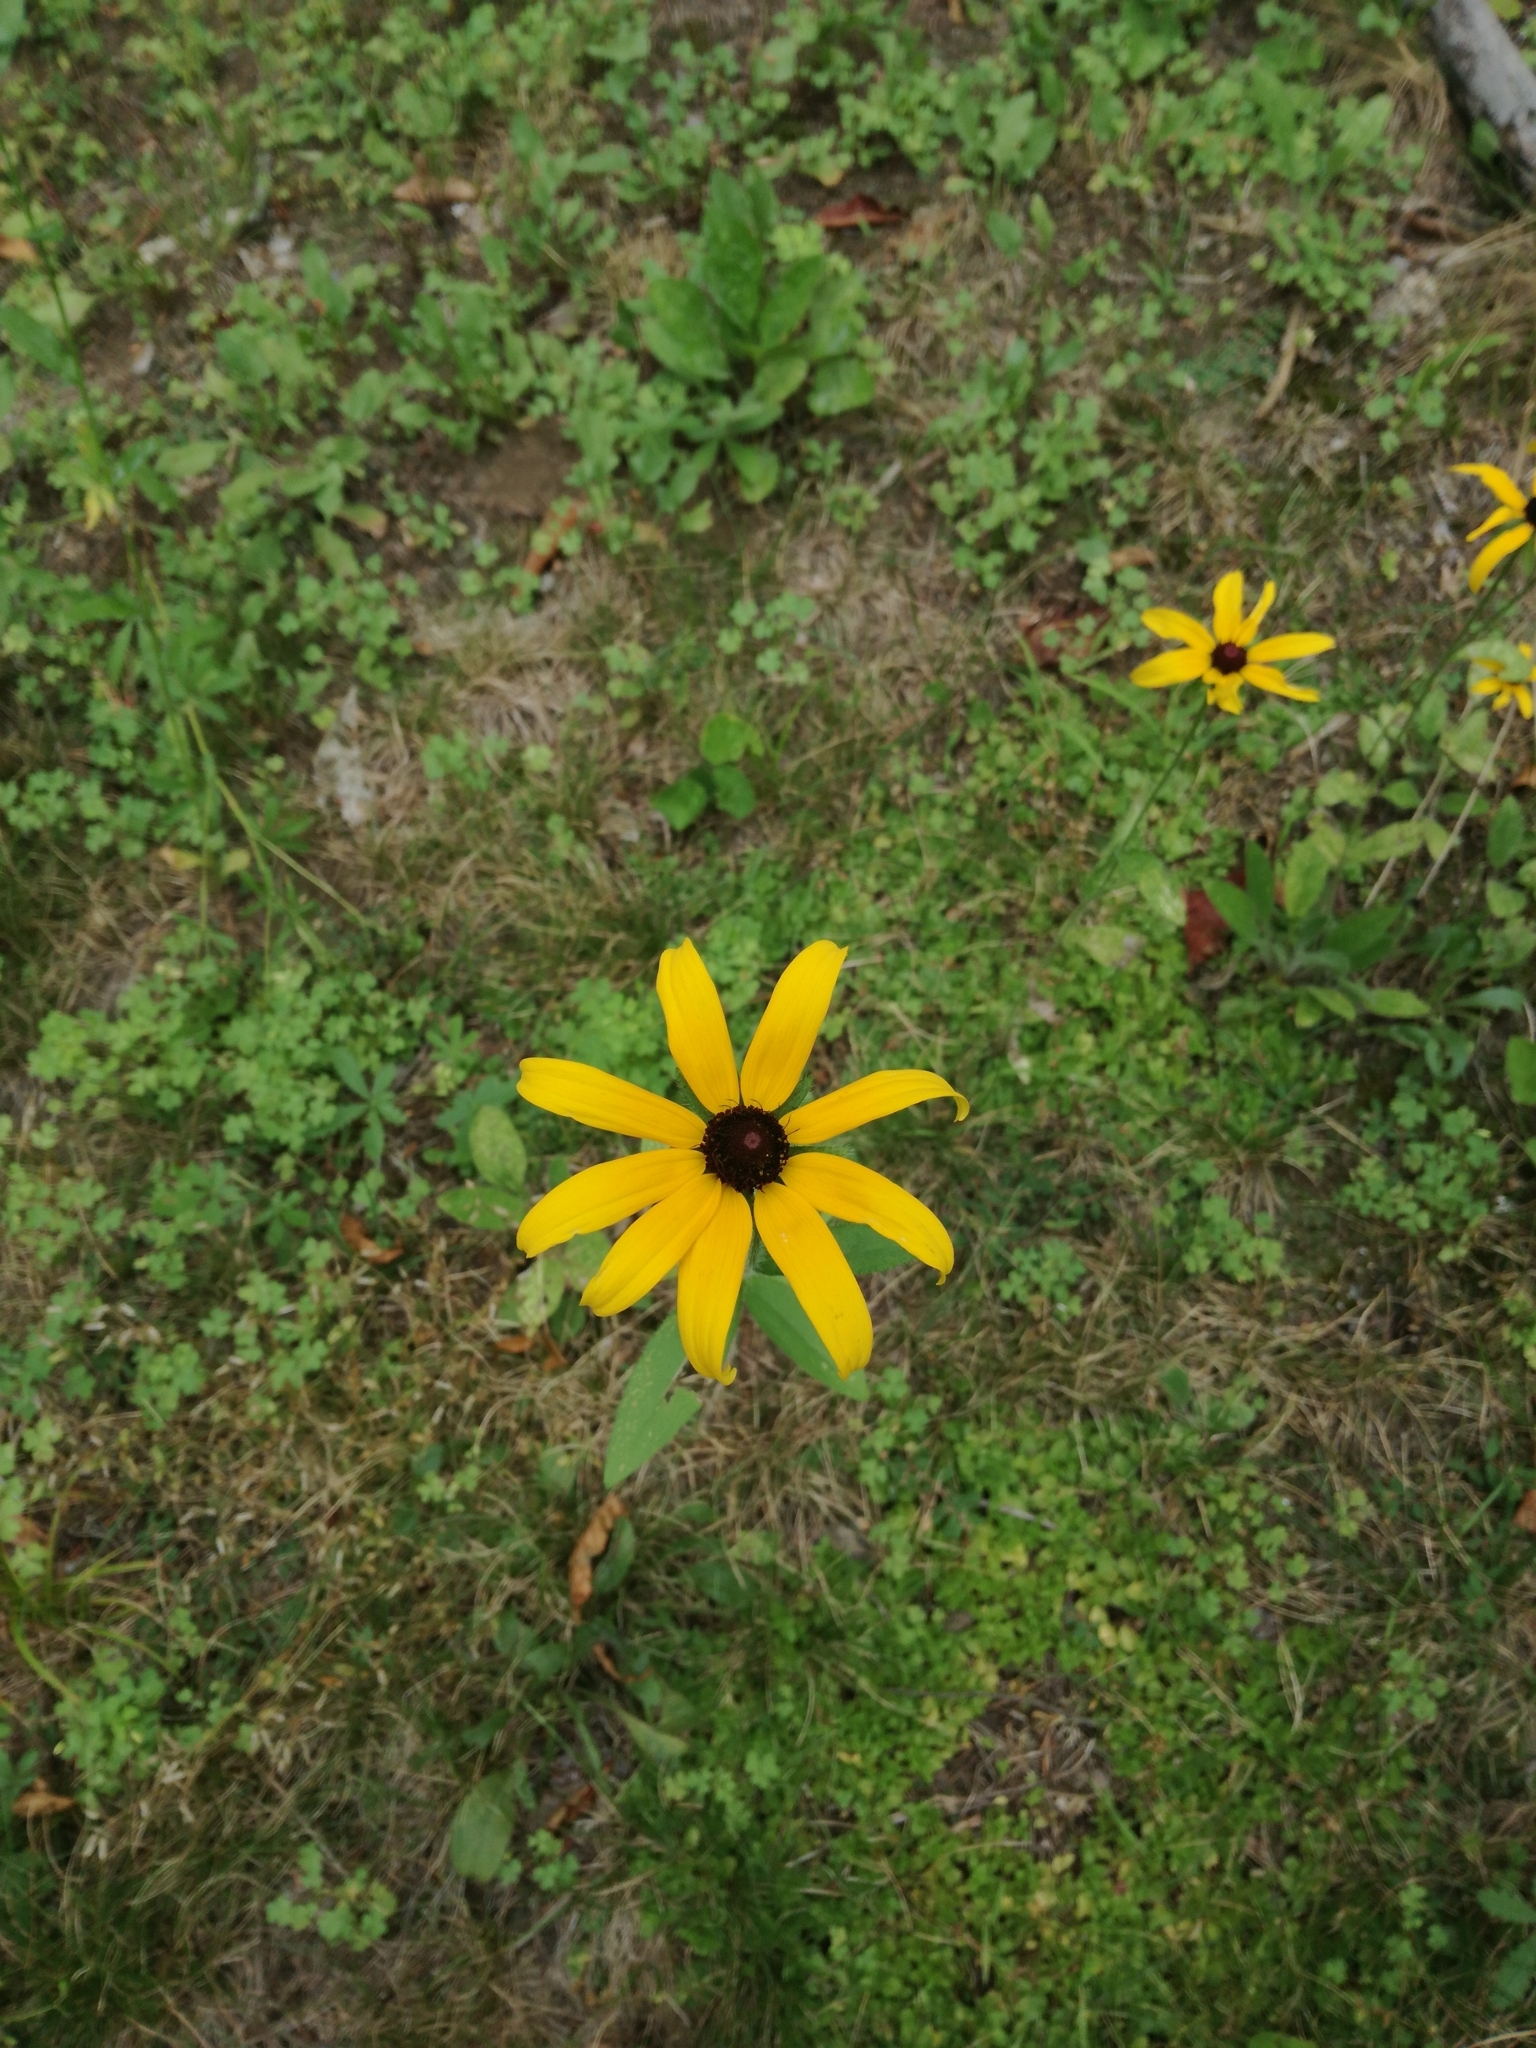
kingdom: Plantae
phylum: Tracheophyta
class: Magnoliopsida
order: Asterales
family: Asteraceae
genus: Rudbeckia
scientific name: Rudbeckia hirta
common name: Black-eyed-susan
